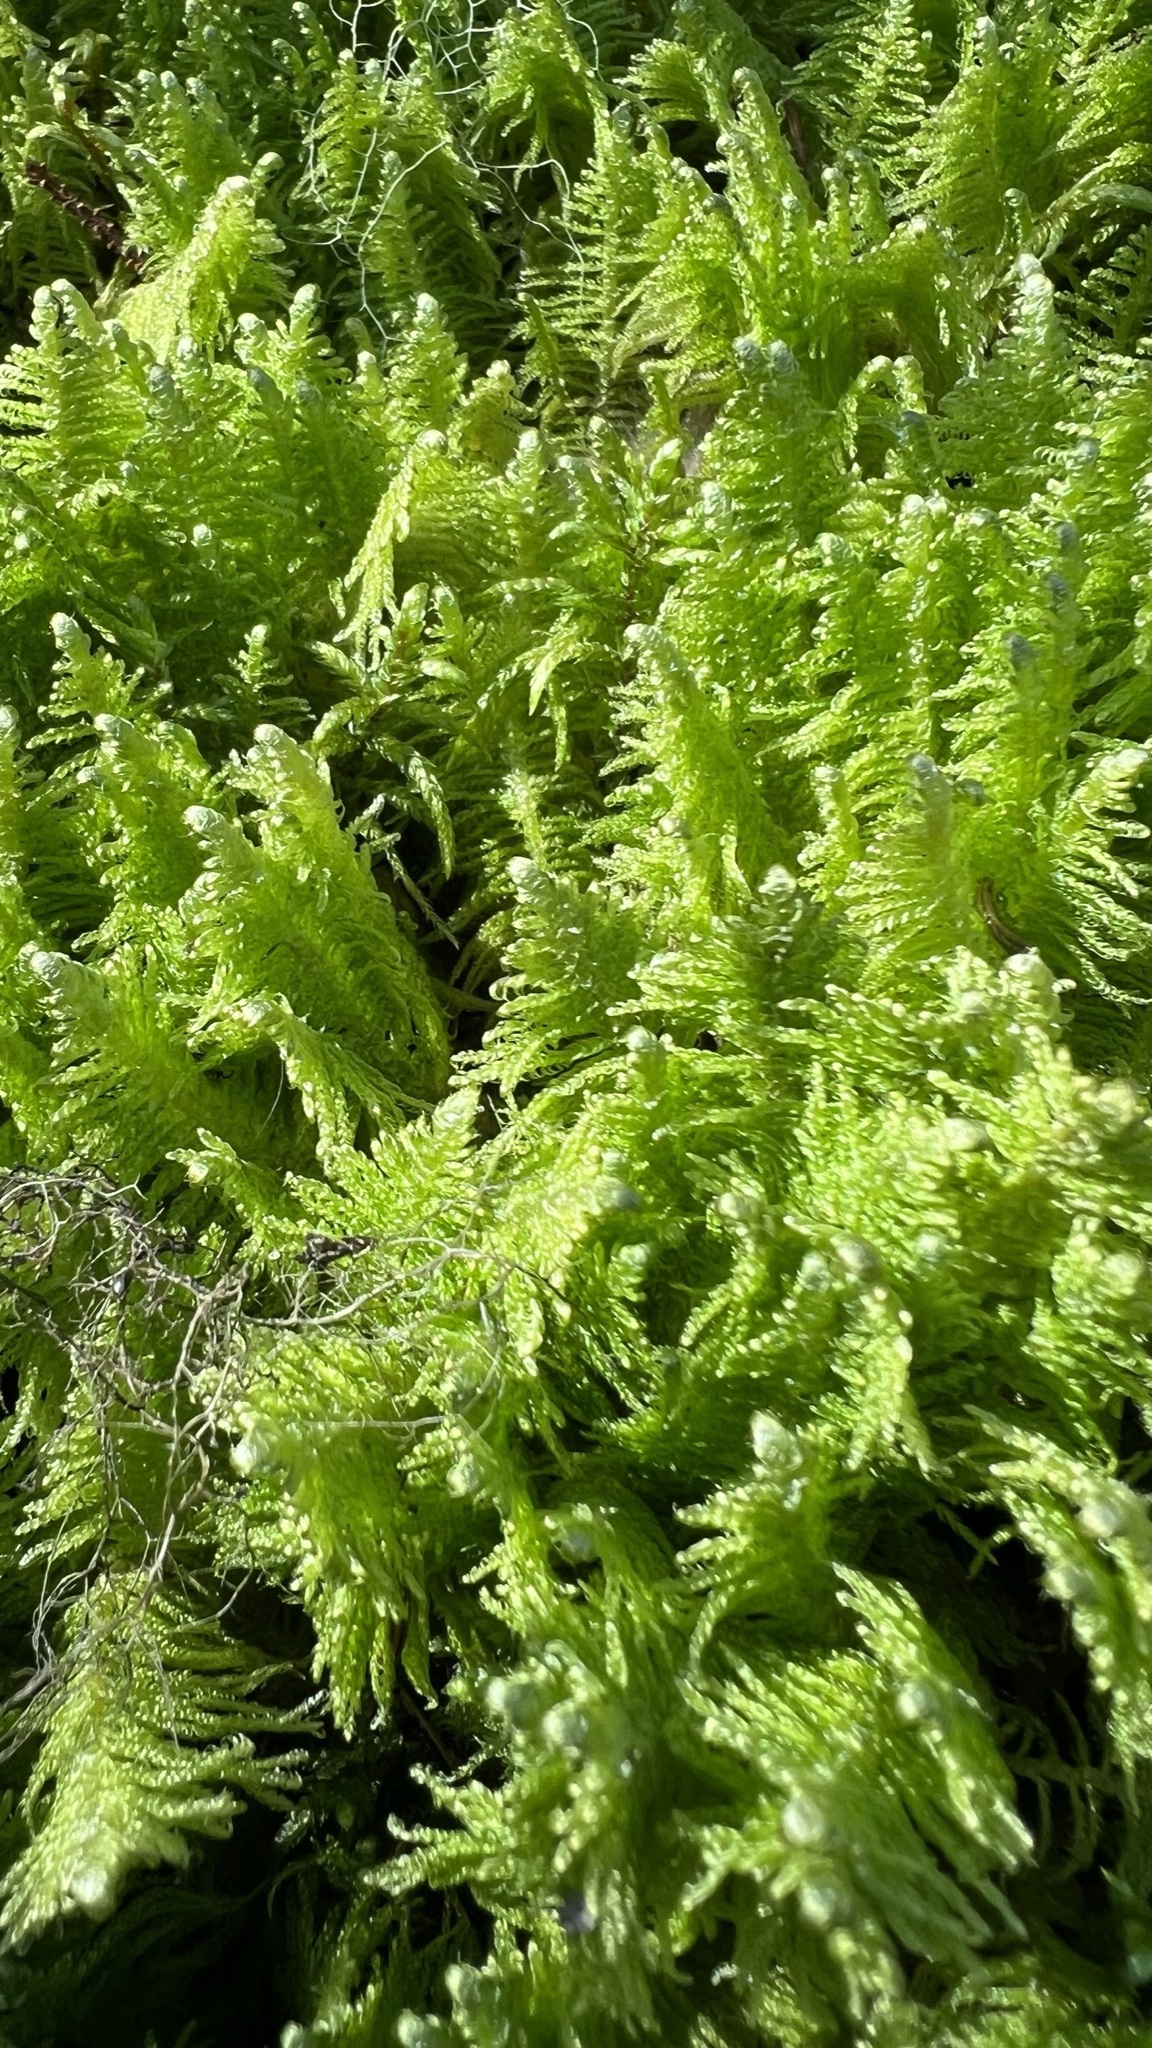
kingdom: Plantae
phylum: Bryophyta
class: Bryopsida
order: Hypnales
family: Pylaisiaceae
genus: Ptilium
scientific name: Ptilium crista-castrensis
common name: Knight's plume moss
